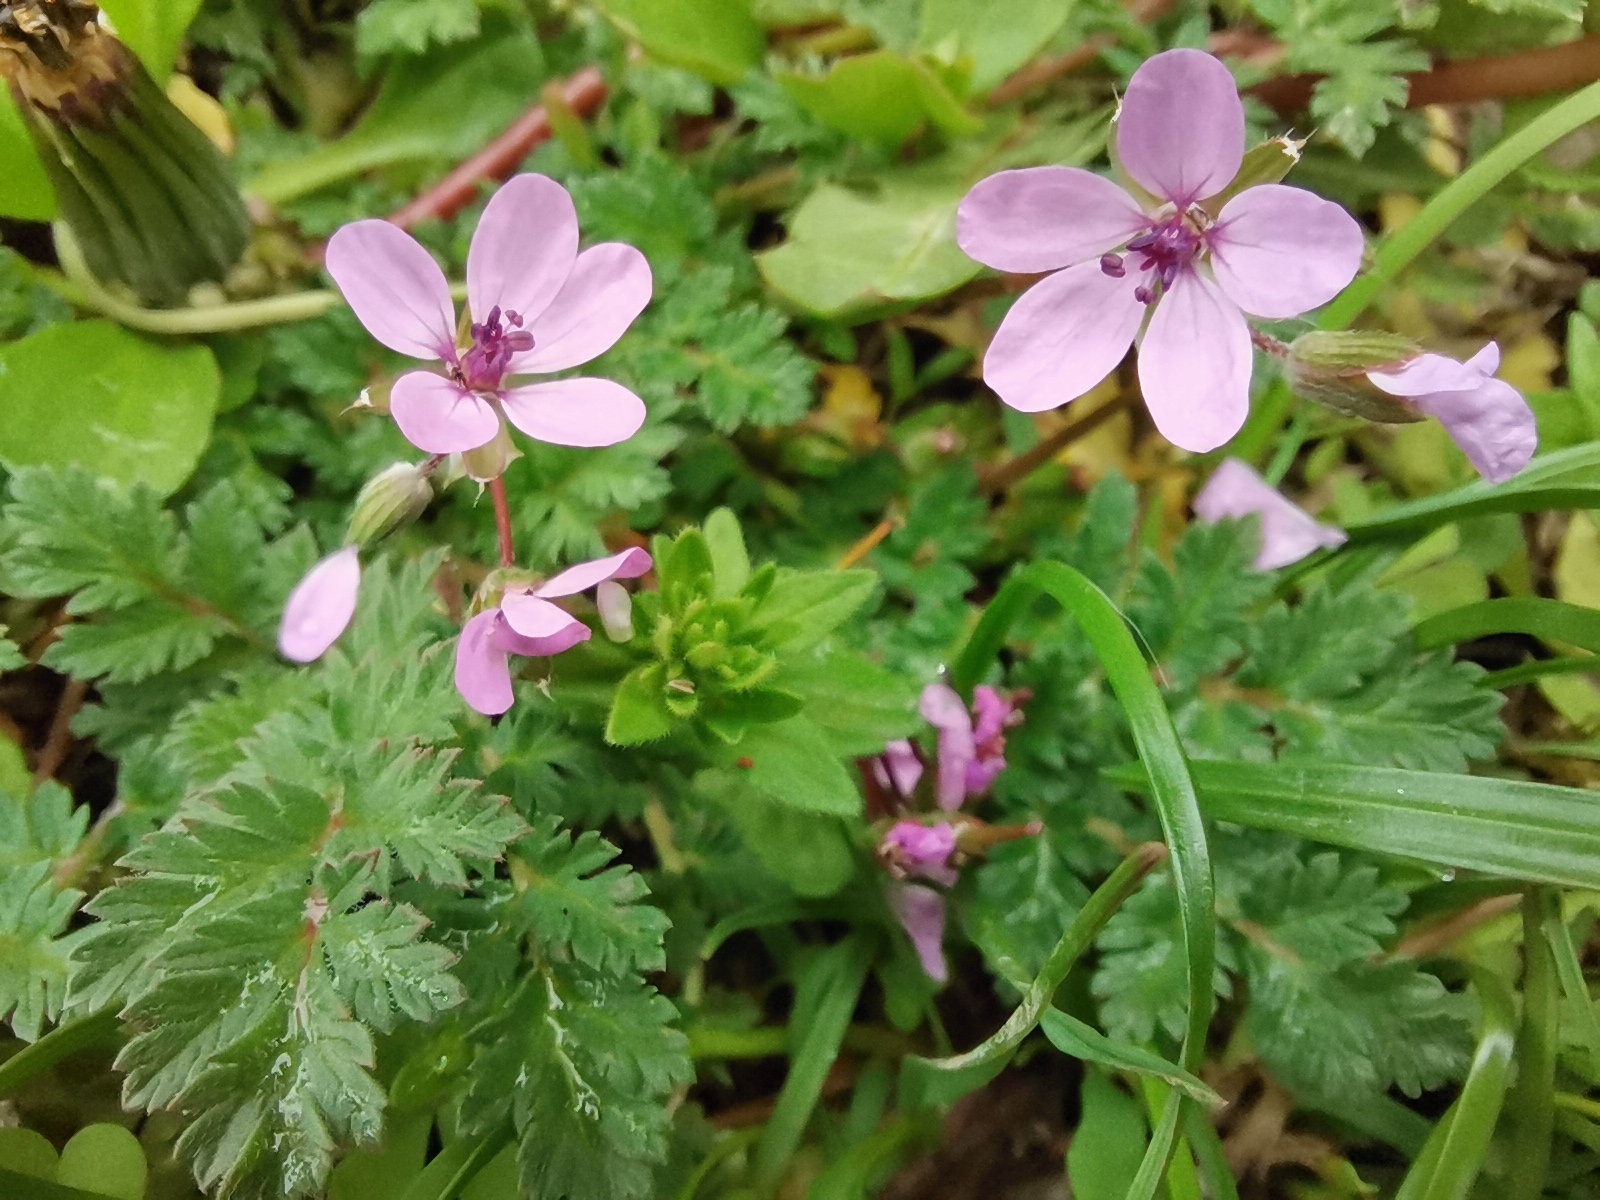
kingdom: Plantae
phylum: Tracheophyta
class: Magnoliopsida
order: Geraniales
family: Geraniaceae
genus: Erodium
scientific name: Erodium cicutarium
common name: Common stork's-bill
